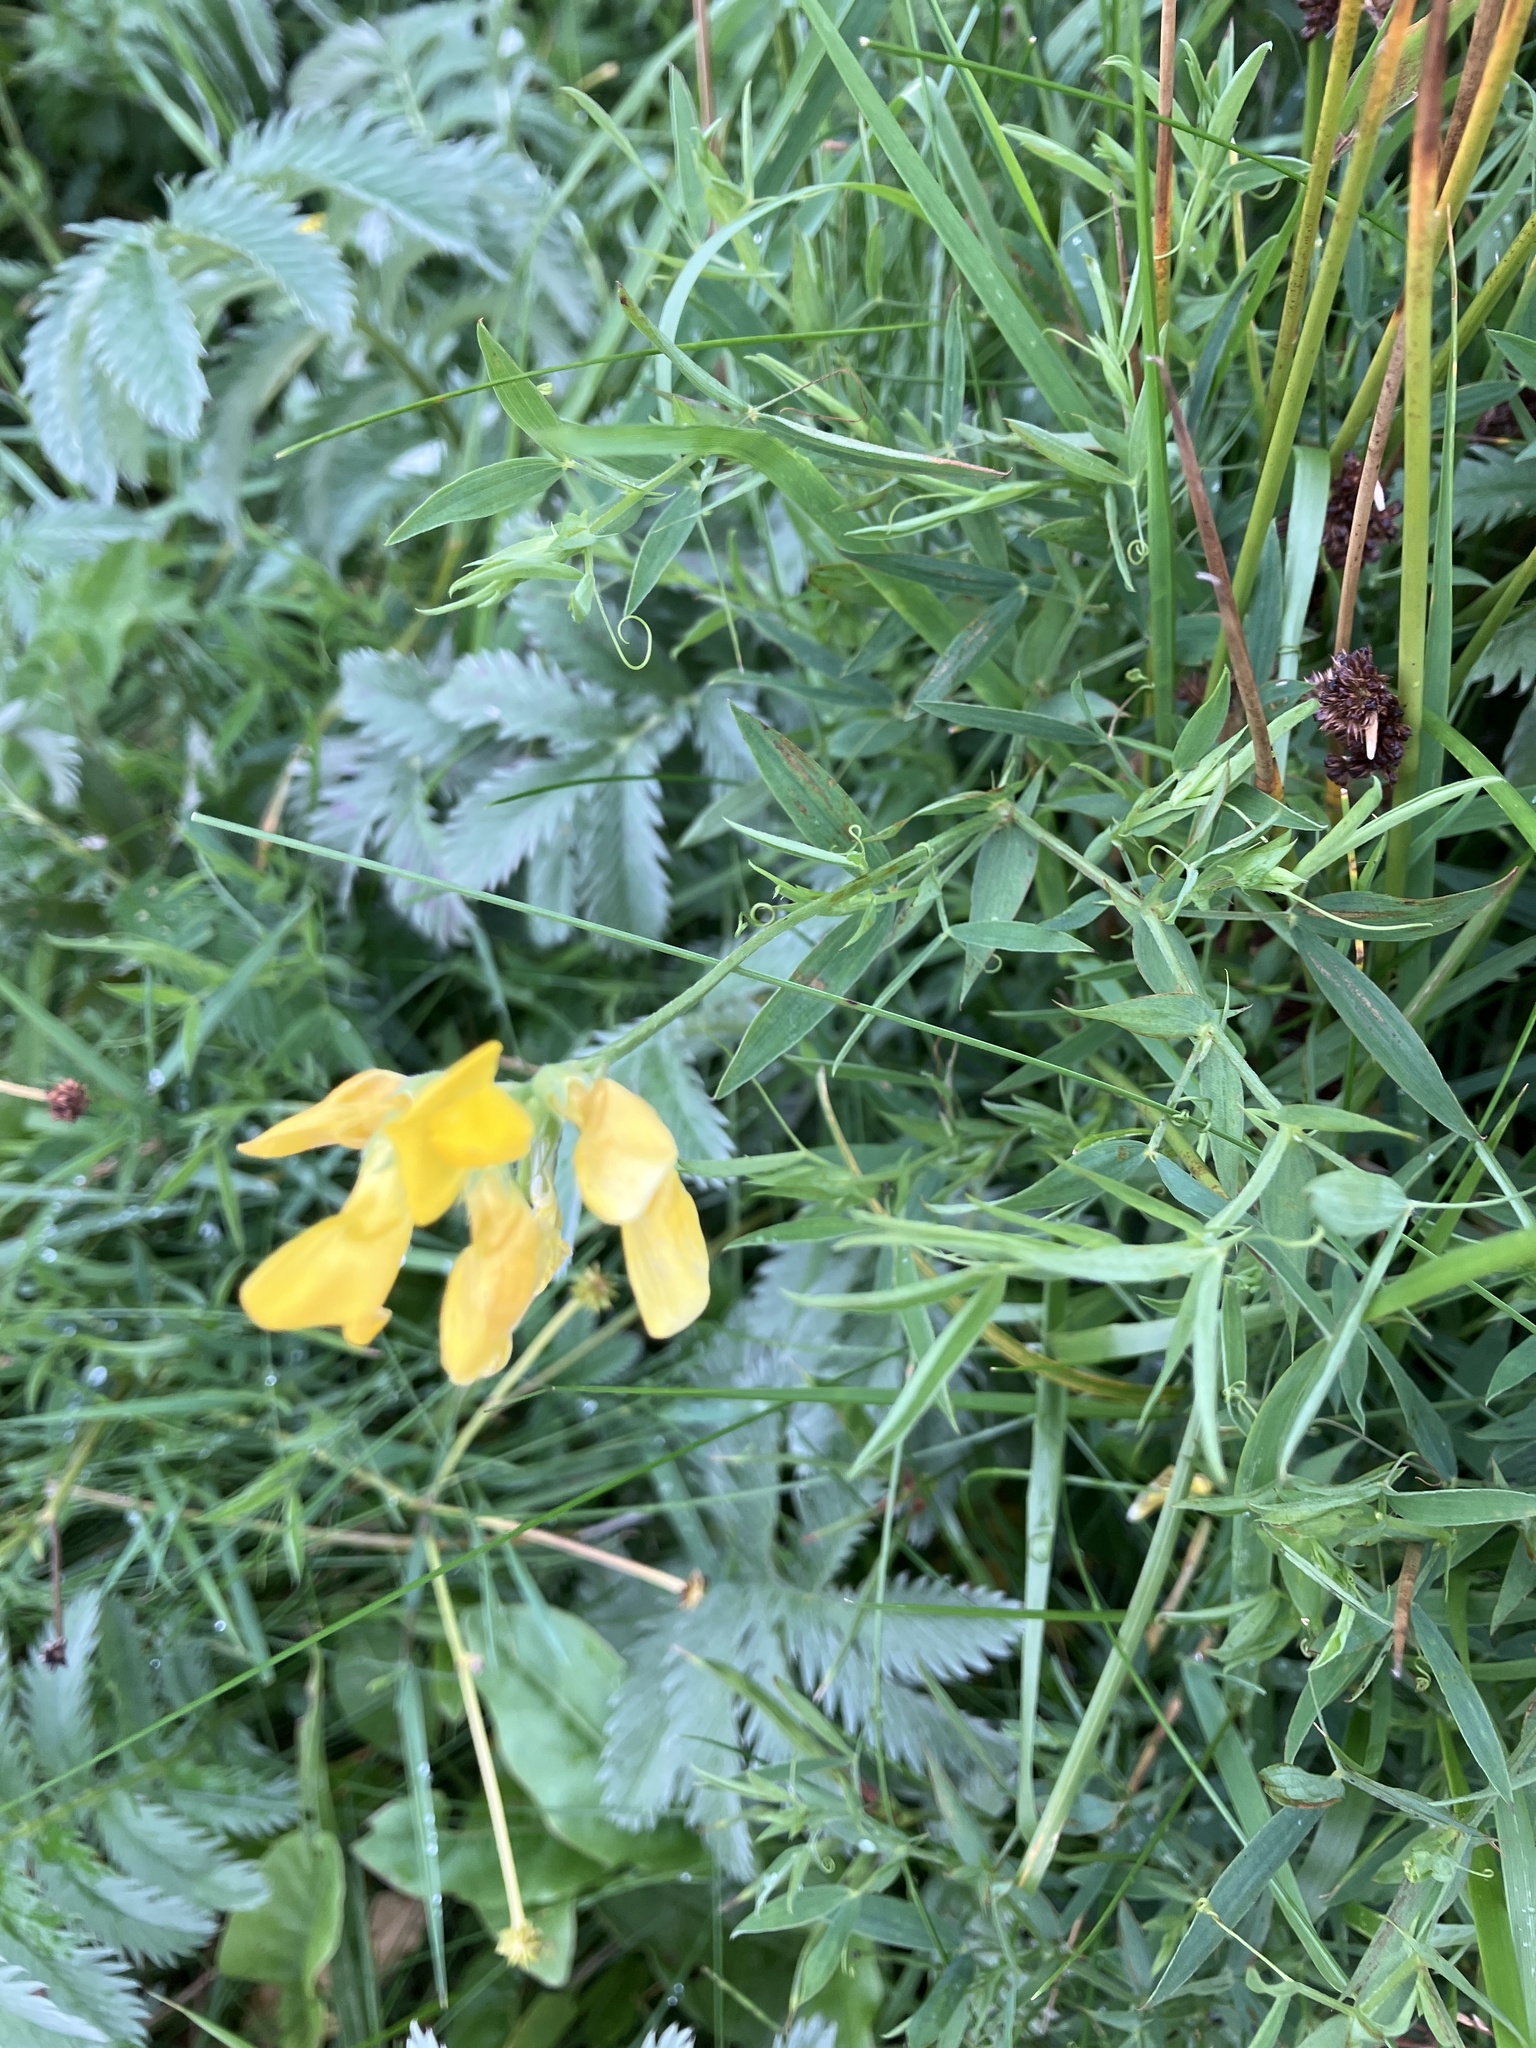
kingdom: Plantae
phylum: Tracheophyta
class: Magnoliopsida
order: Fabales
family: Fabaceae
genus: Lathyrus
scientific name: Lathyrus pratensis
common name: Meadow vetchling
